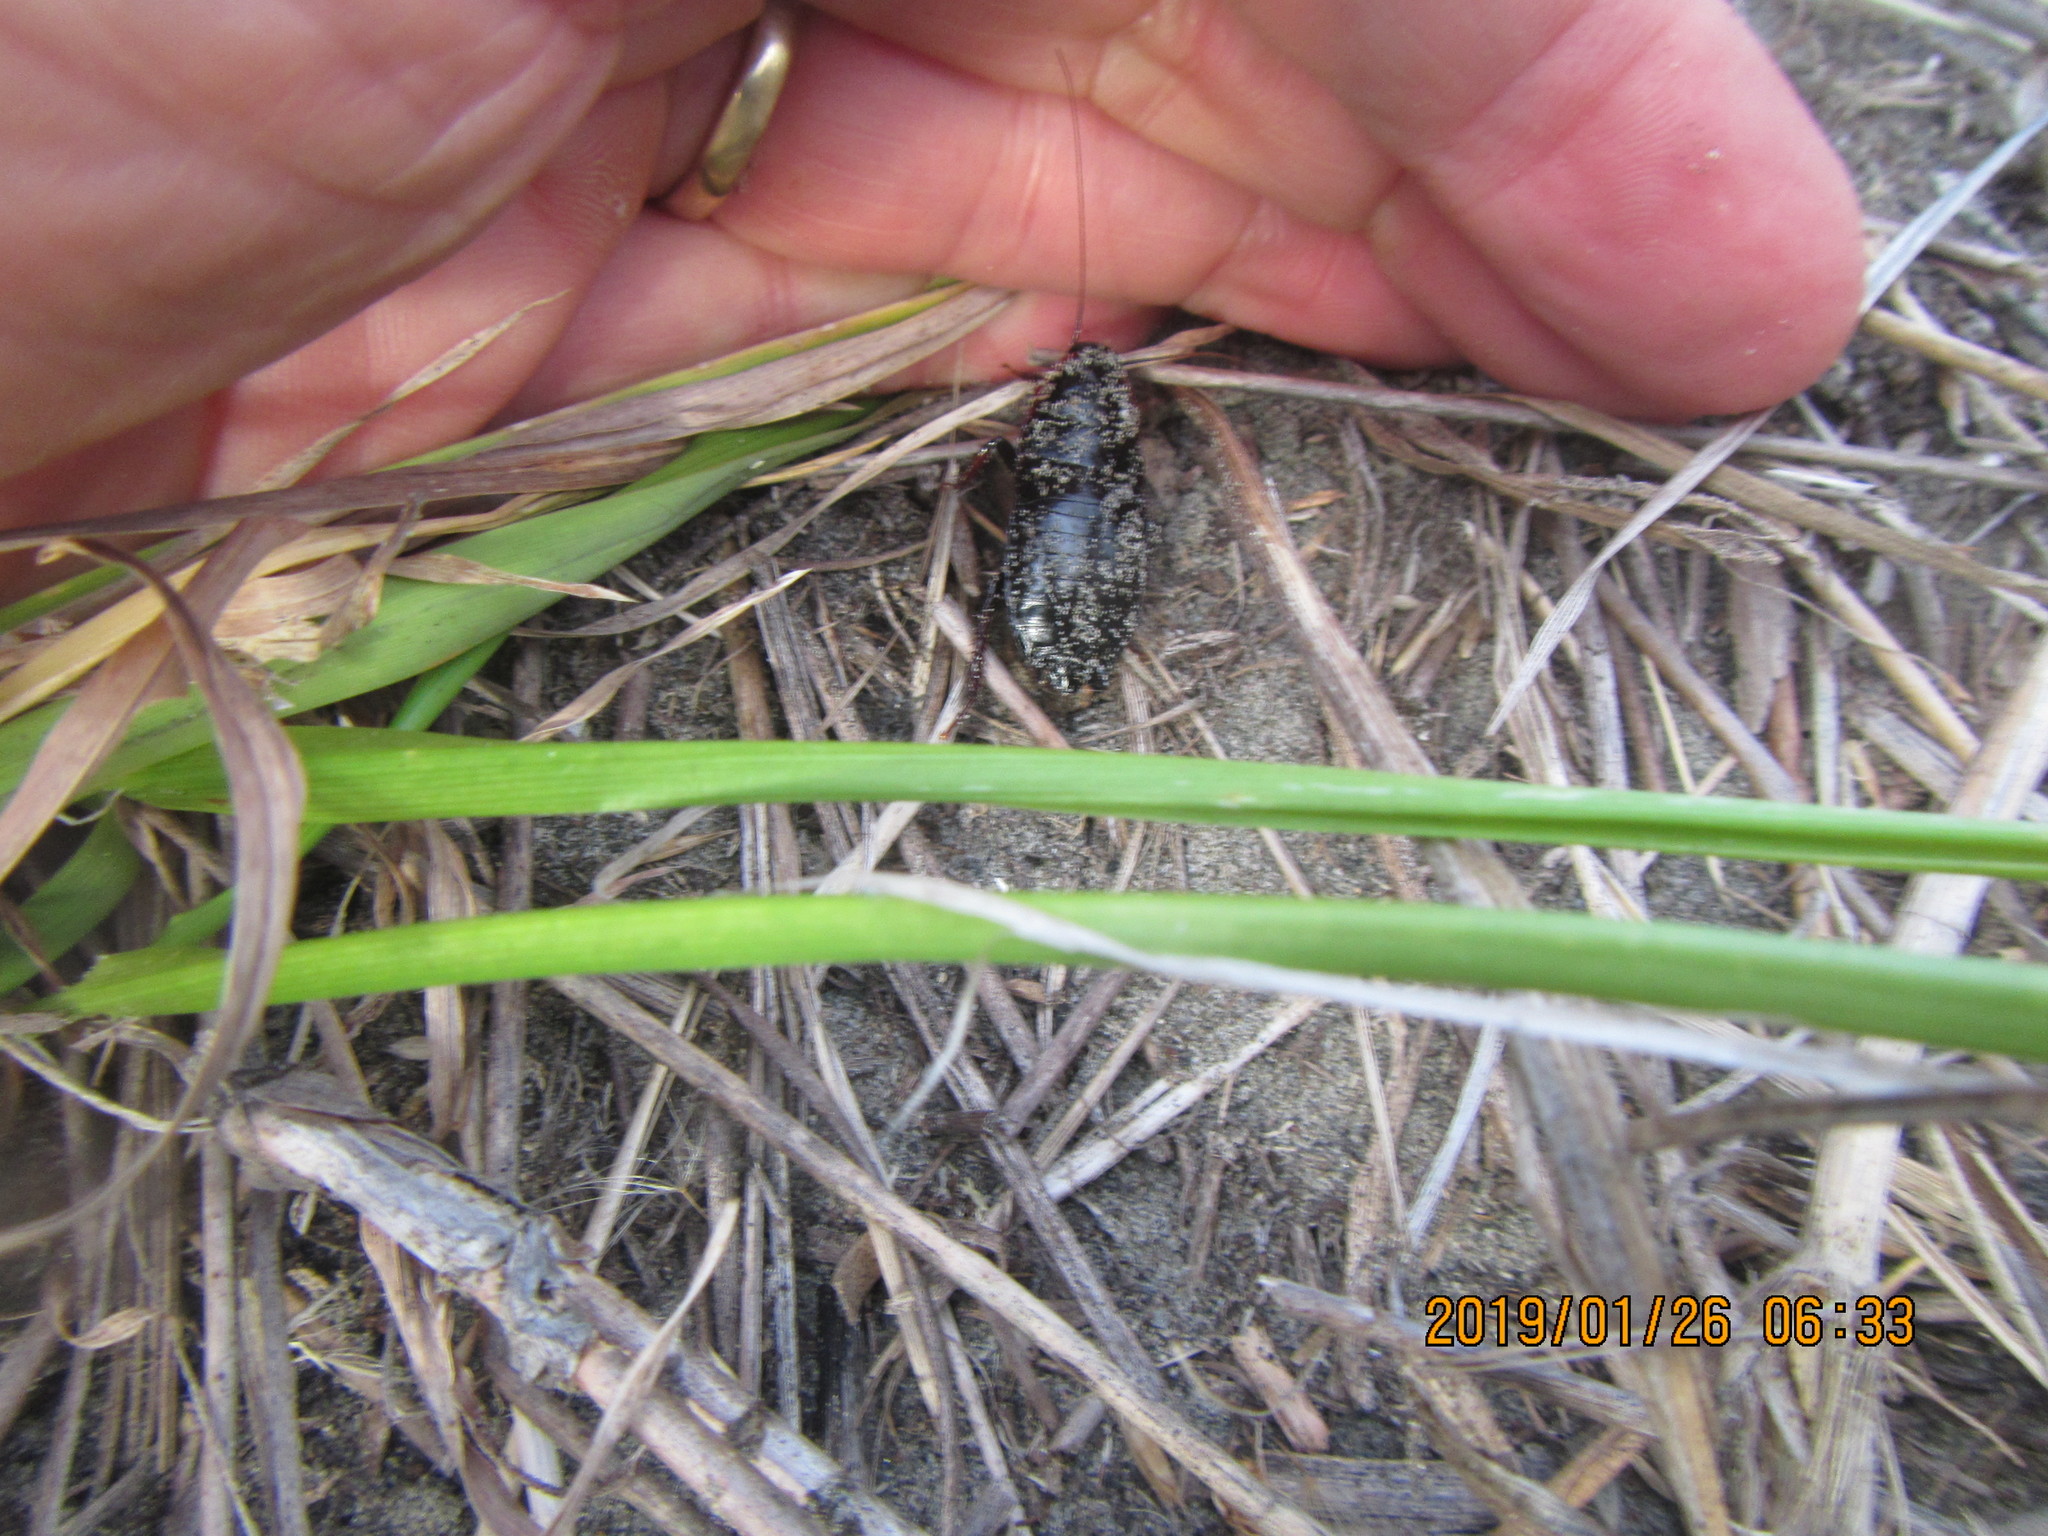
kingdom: Animalia
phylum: Arthropoda
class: Insecta
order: Blattodea
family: Blattidae
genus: Maoriblatta
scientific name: Maoriblatta novaeseelandiae
